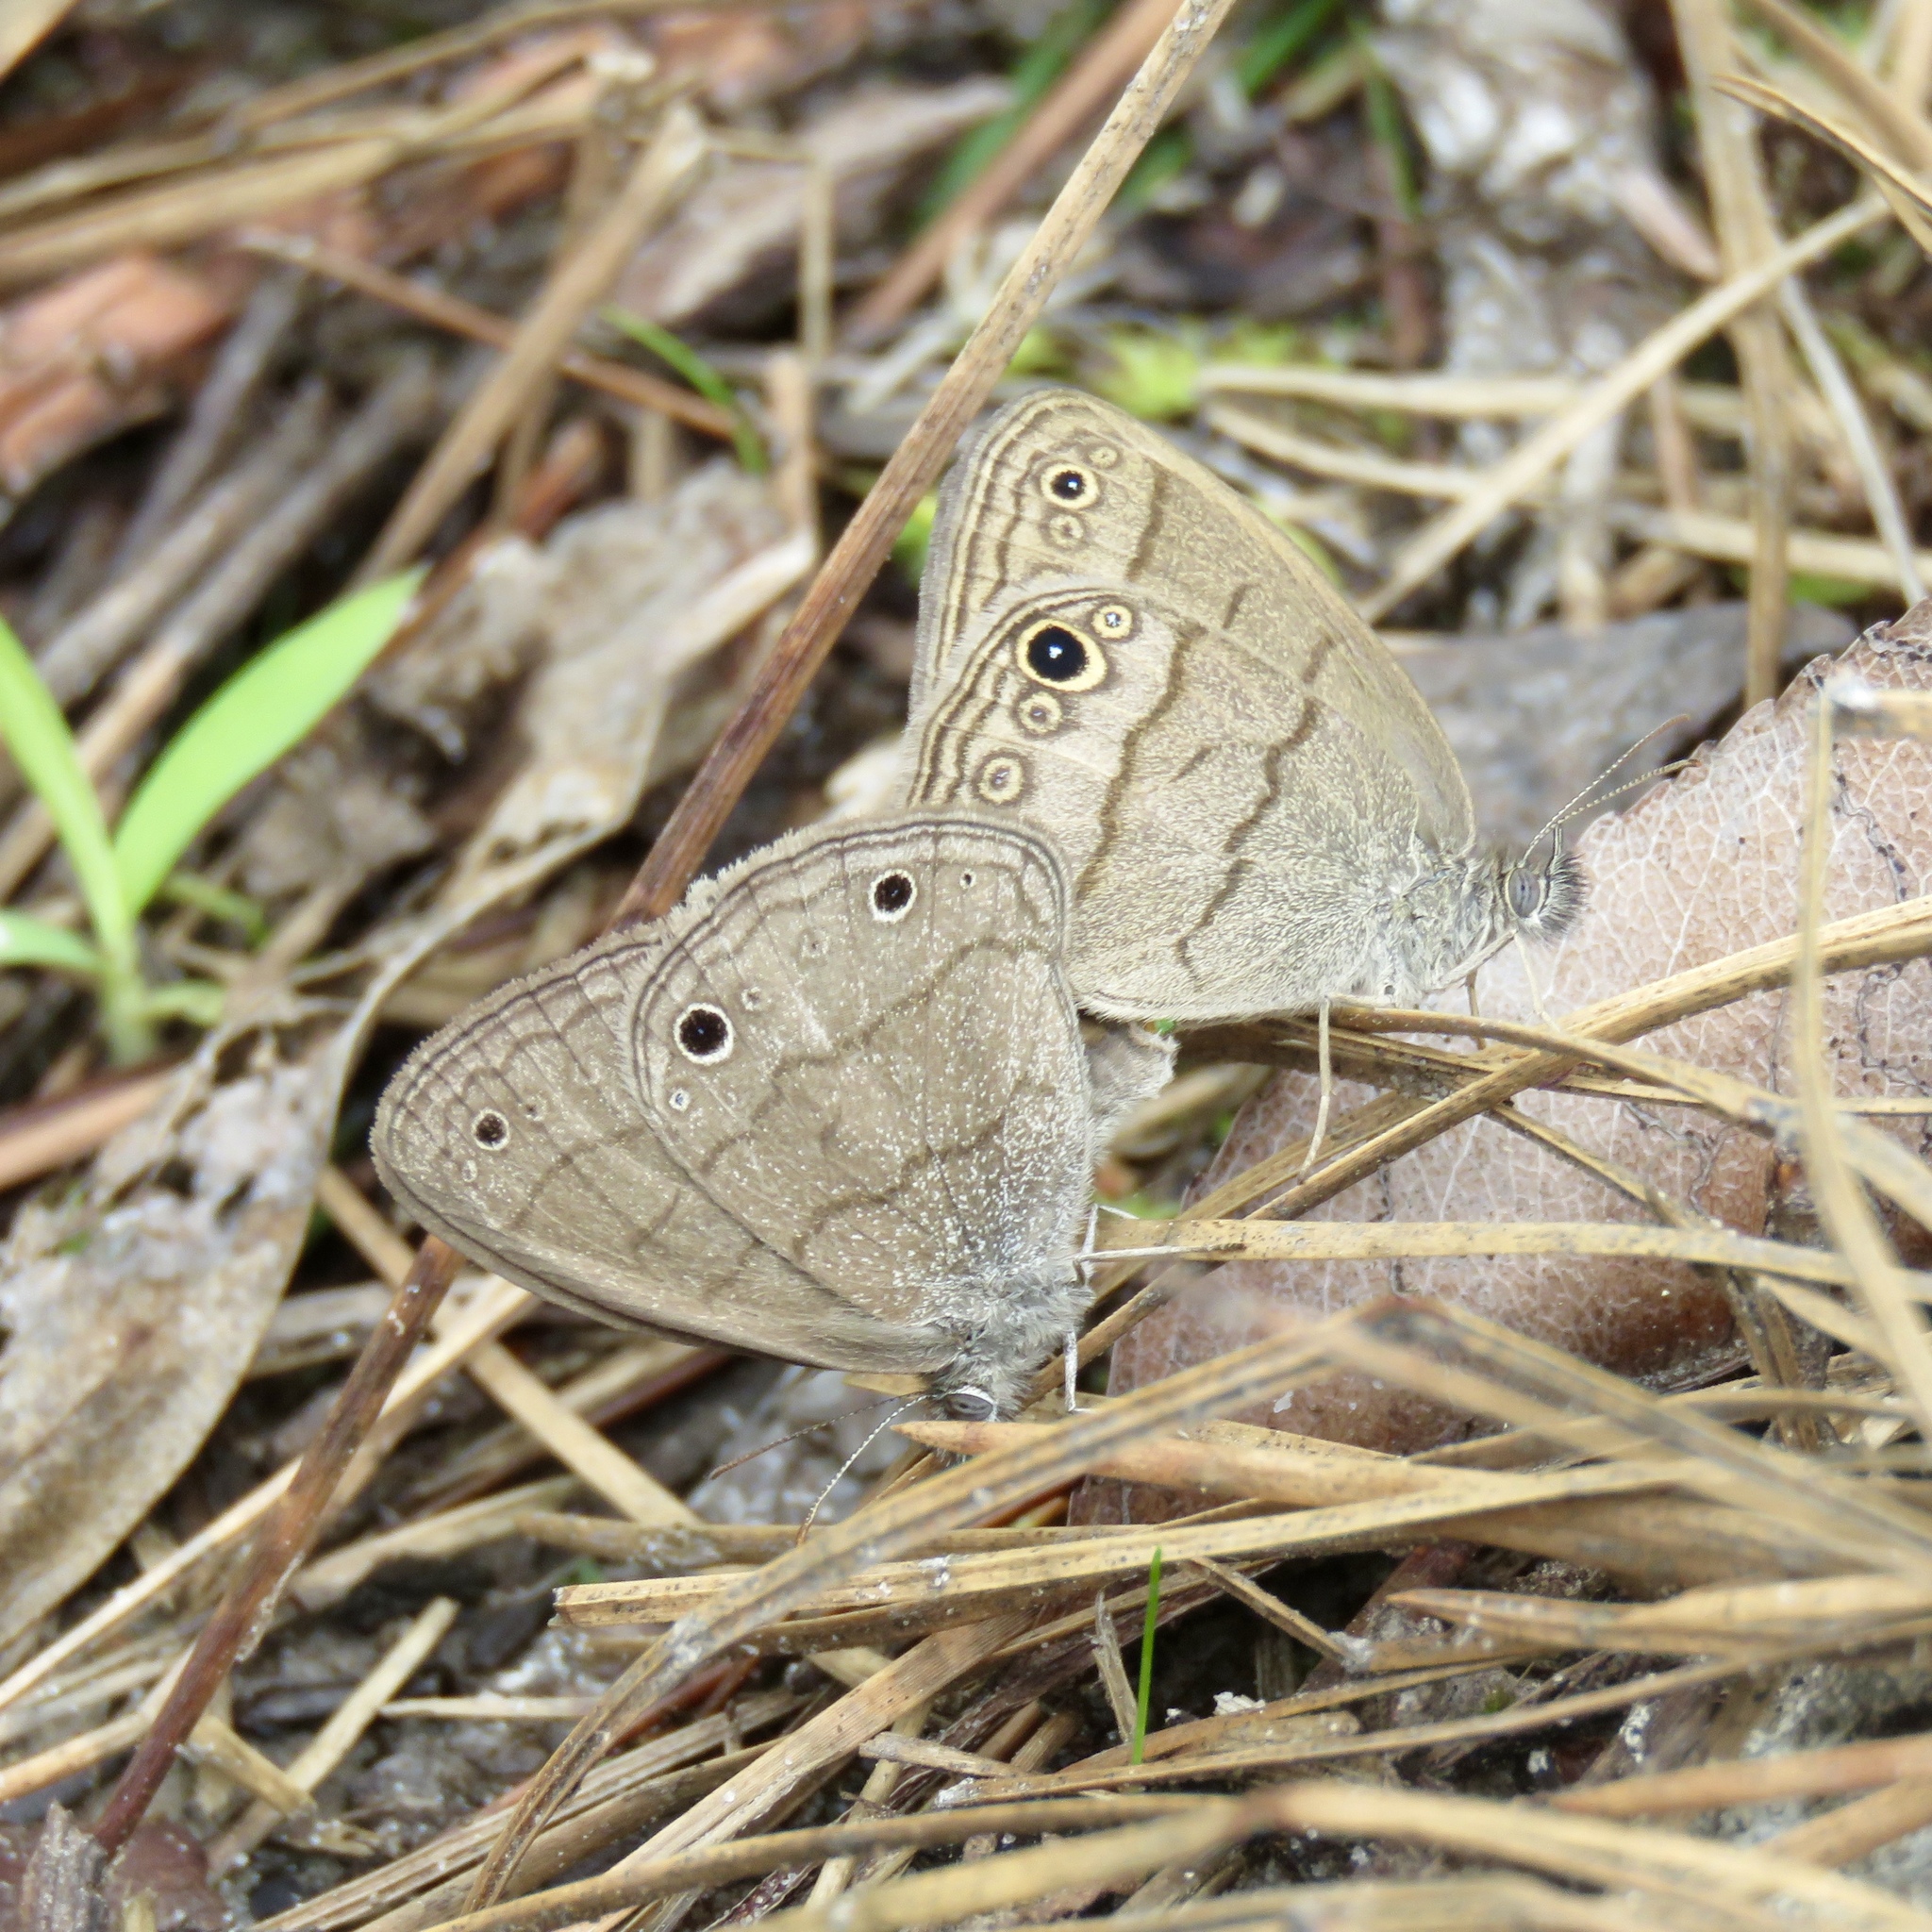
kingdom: Animalia
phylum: Arthropoda
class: Insecta
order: Lepidoptera
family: Nymphalidae
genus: Hermeuptychia
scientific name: Hermeuptychia hermes
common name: Hermes satyr
